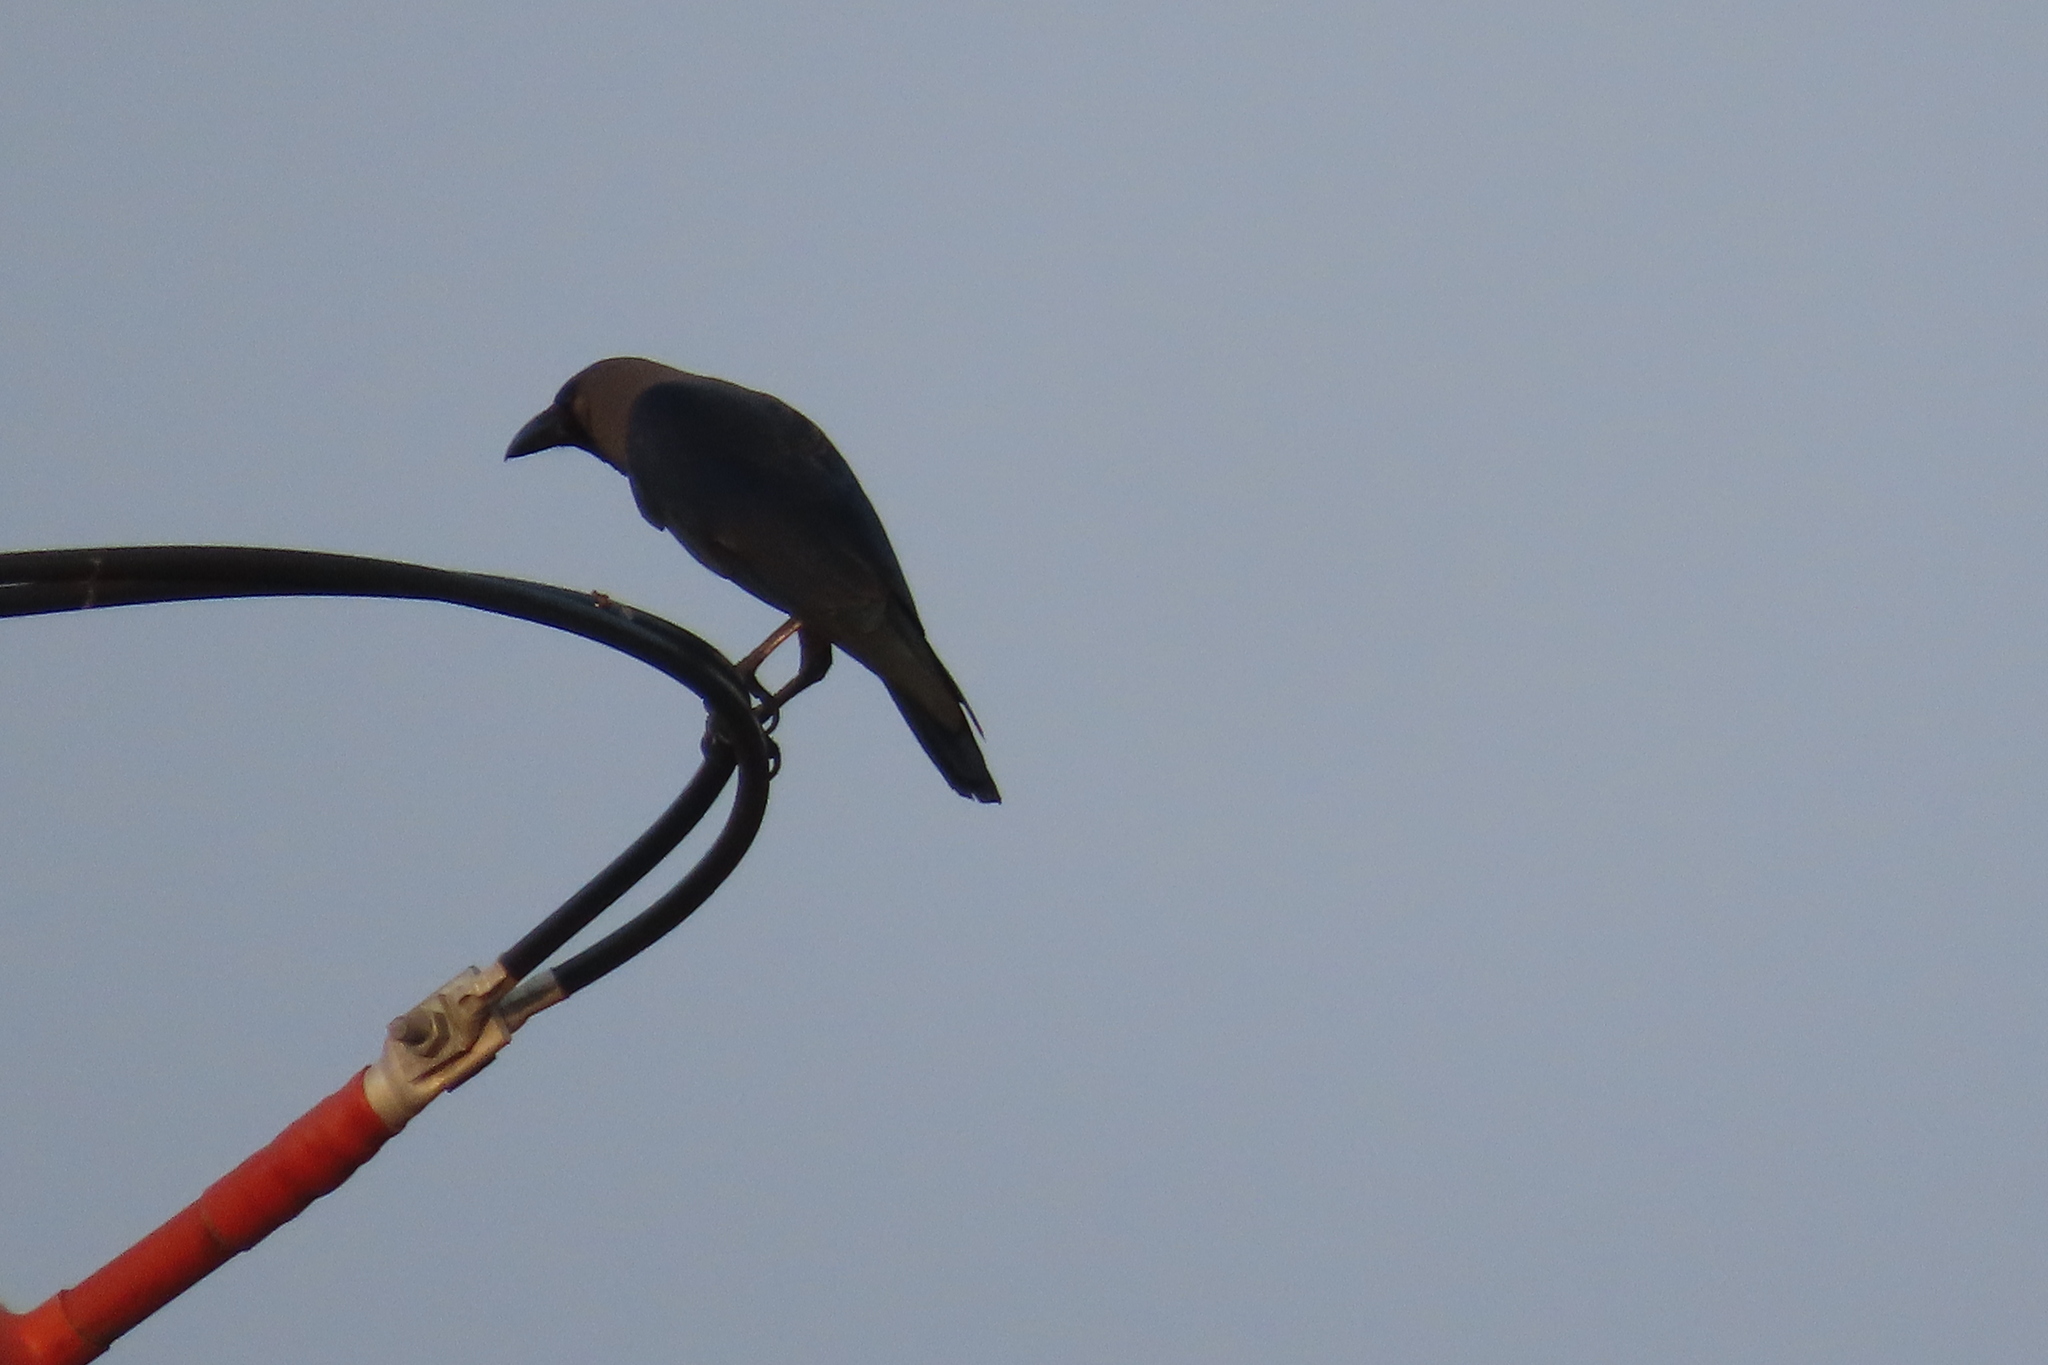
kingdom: Animalia
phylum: Chordata
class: Aves
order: Passeriformes
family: Corvidae
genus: Corvus
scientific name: Corvus splendens
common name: House crow
